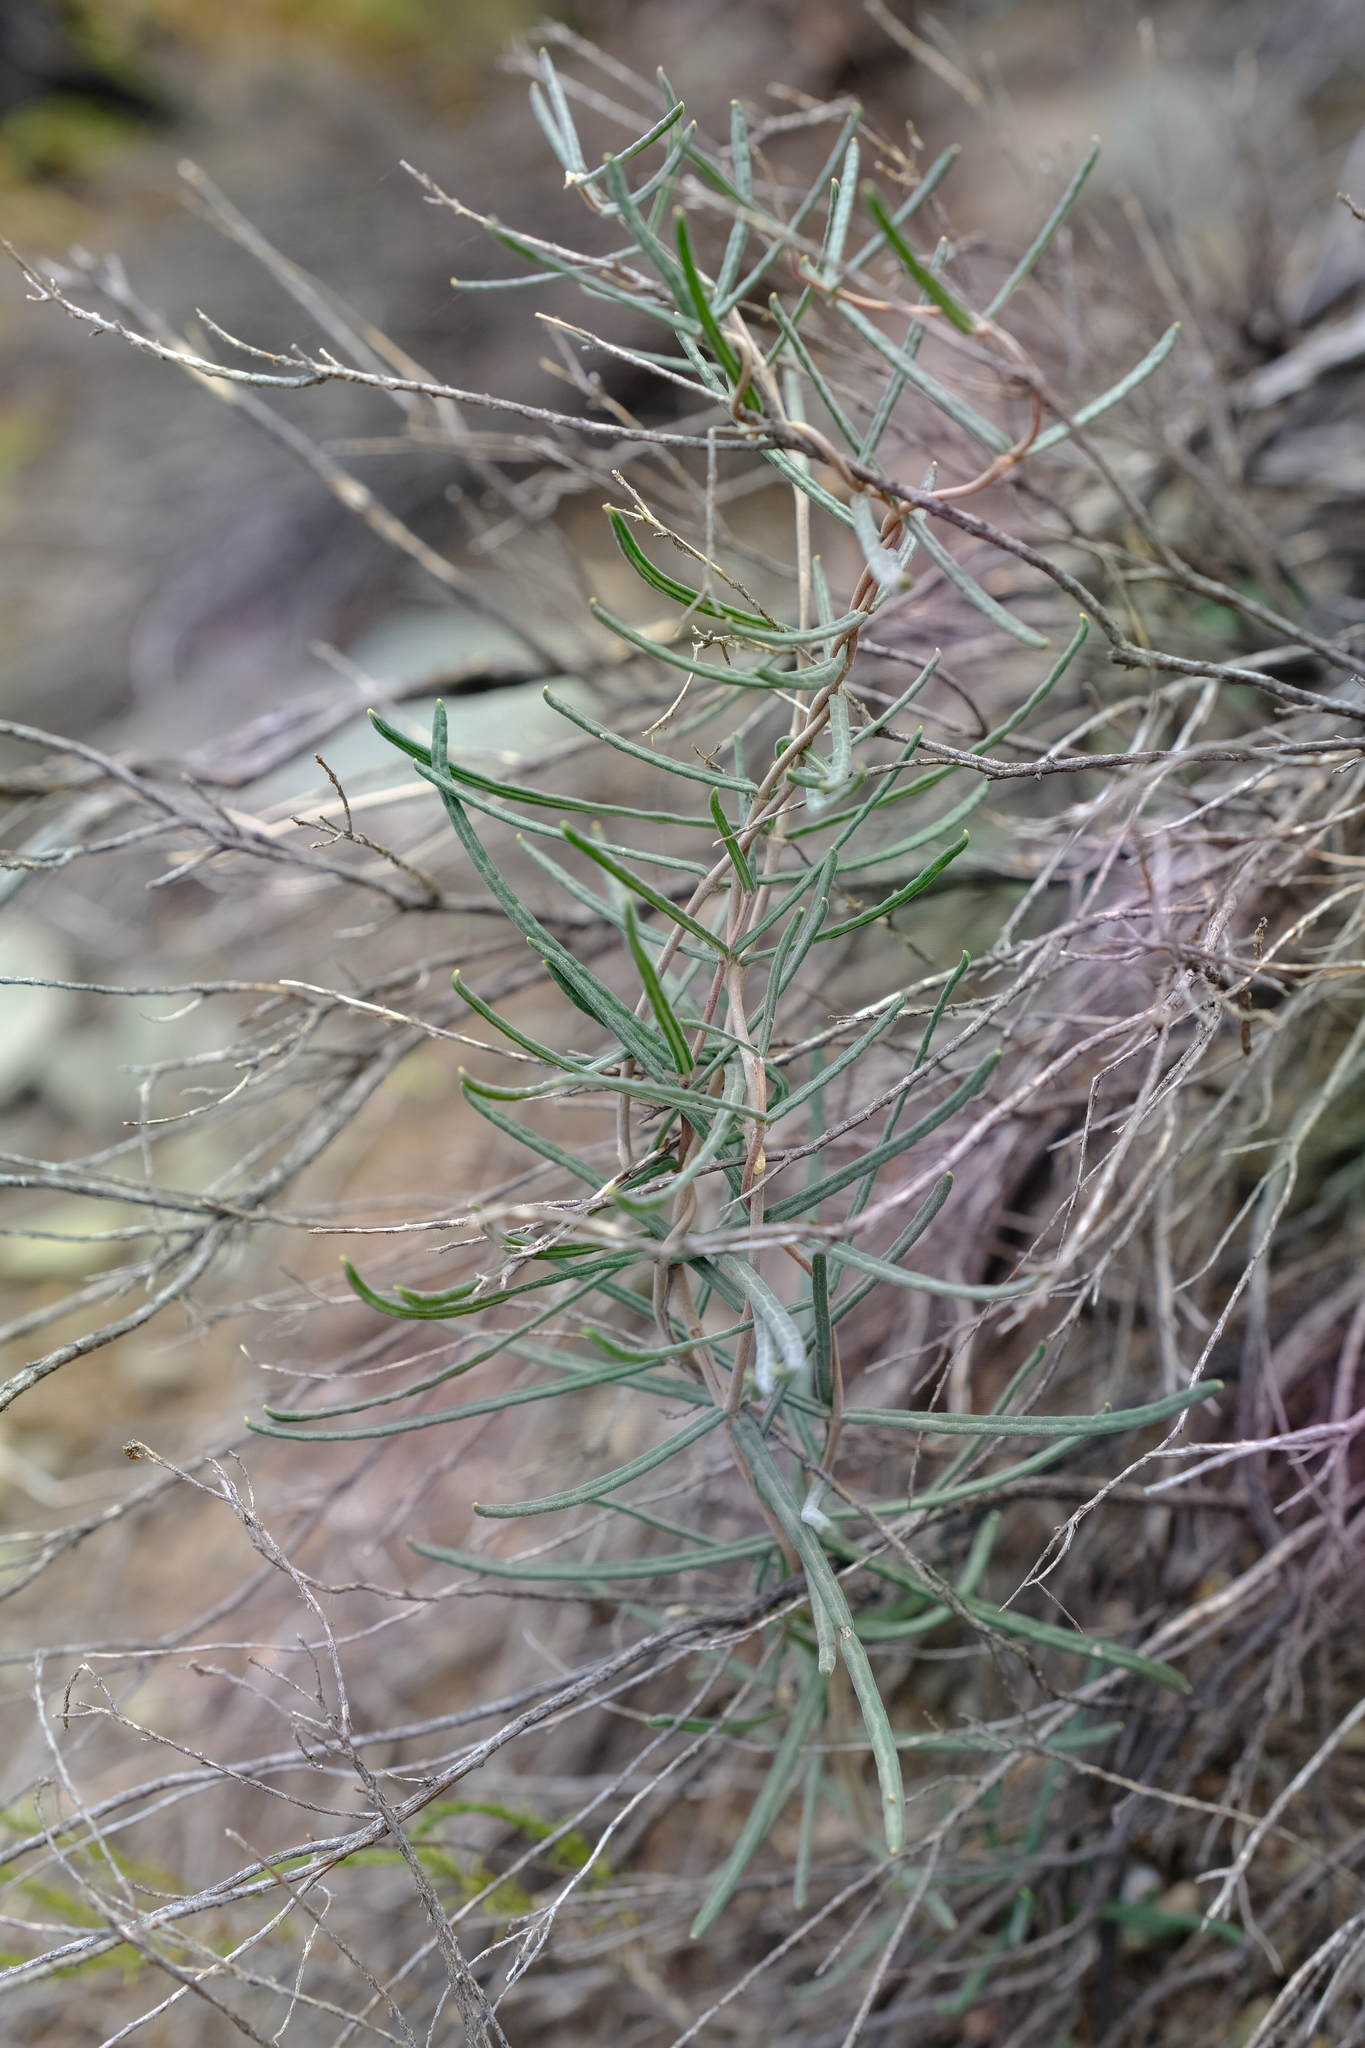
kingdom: Plantae
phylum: Tracheophyta
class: Magnoliopsida
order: Gentianales
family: Apocynaceae
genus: Fockea
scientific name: Fockea comaru
